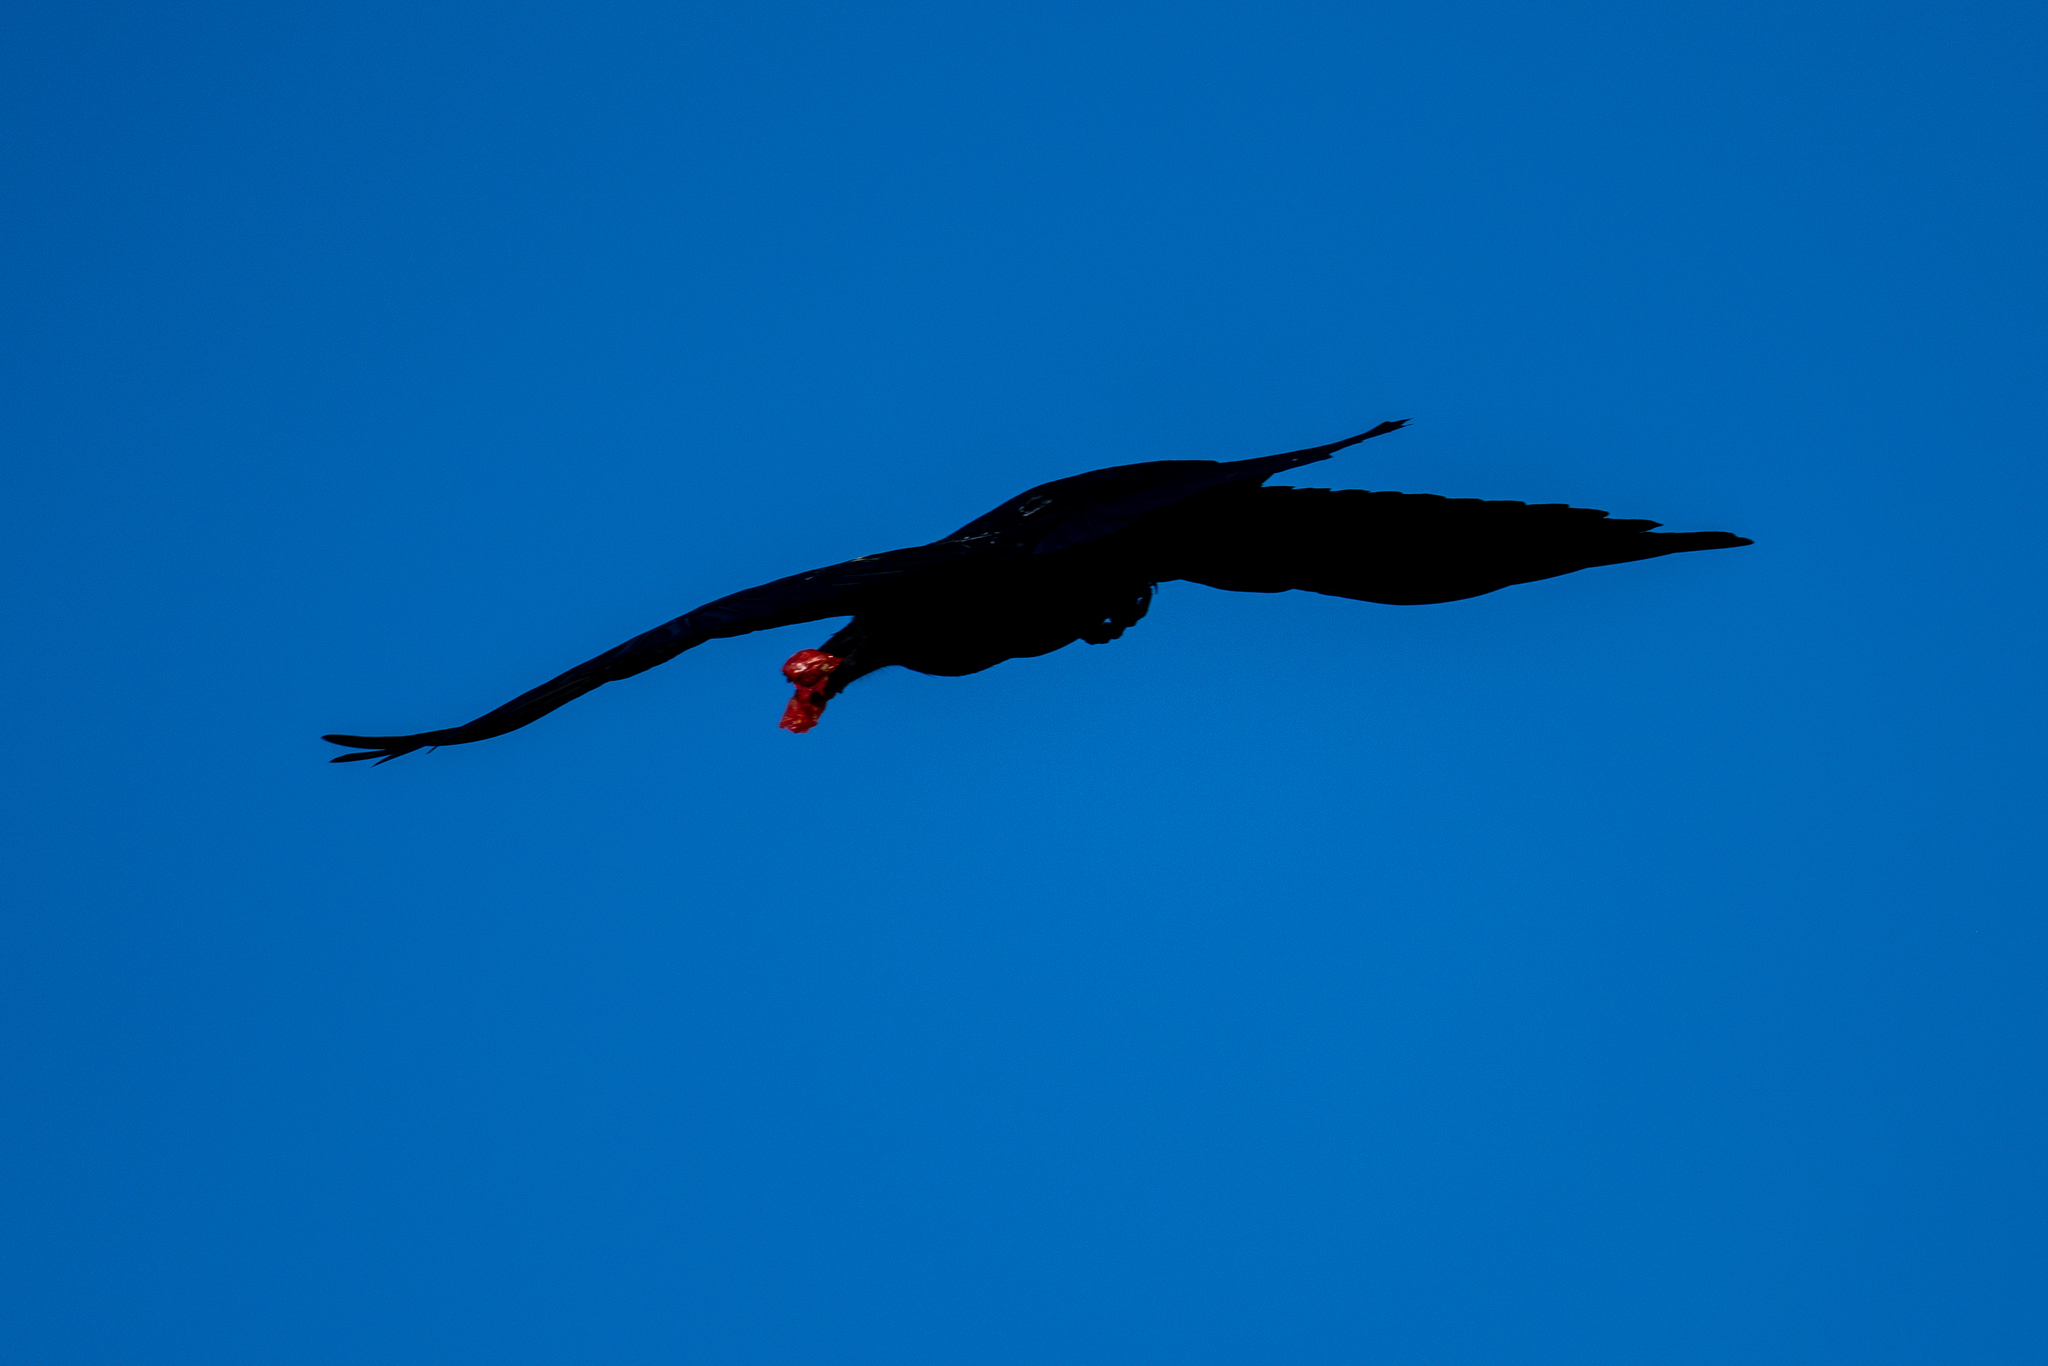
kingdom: Animalia
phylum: Chordata
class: Aves
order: Passeriformes
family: Corvidae
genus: Corvus
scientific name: Corvus corax
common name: Common raven
